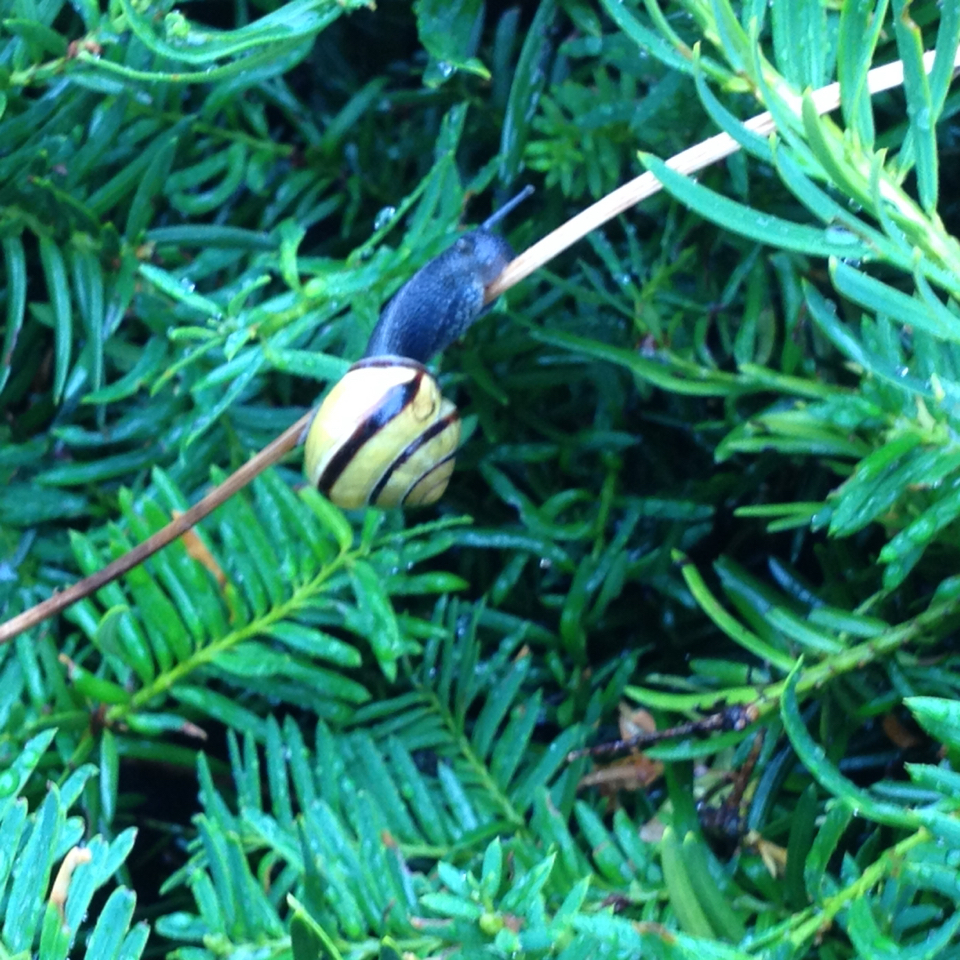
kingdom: Animalia
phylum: Mollusca
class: Gastropoda
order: Stylommatophora
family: Helicidae
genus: Cepaea
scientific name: Cepaea nemoralis
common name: Grovesnail
